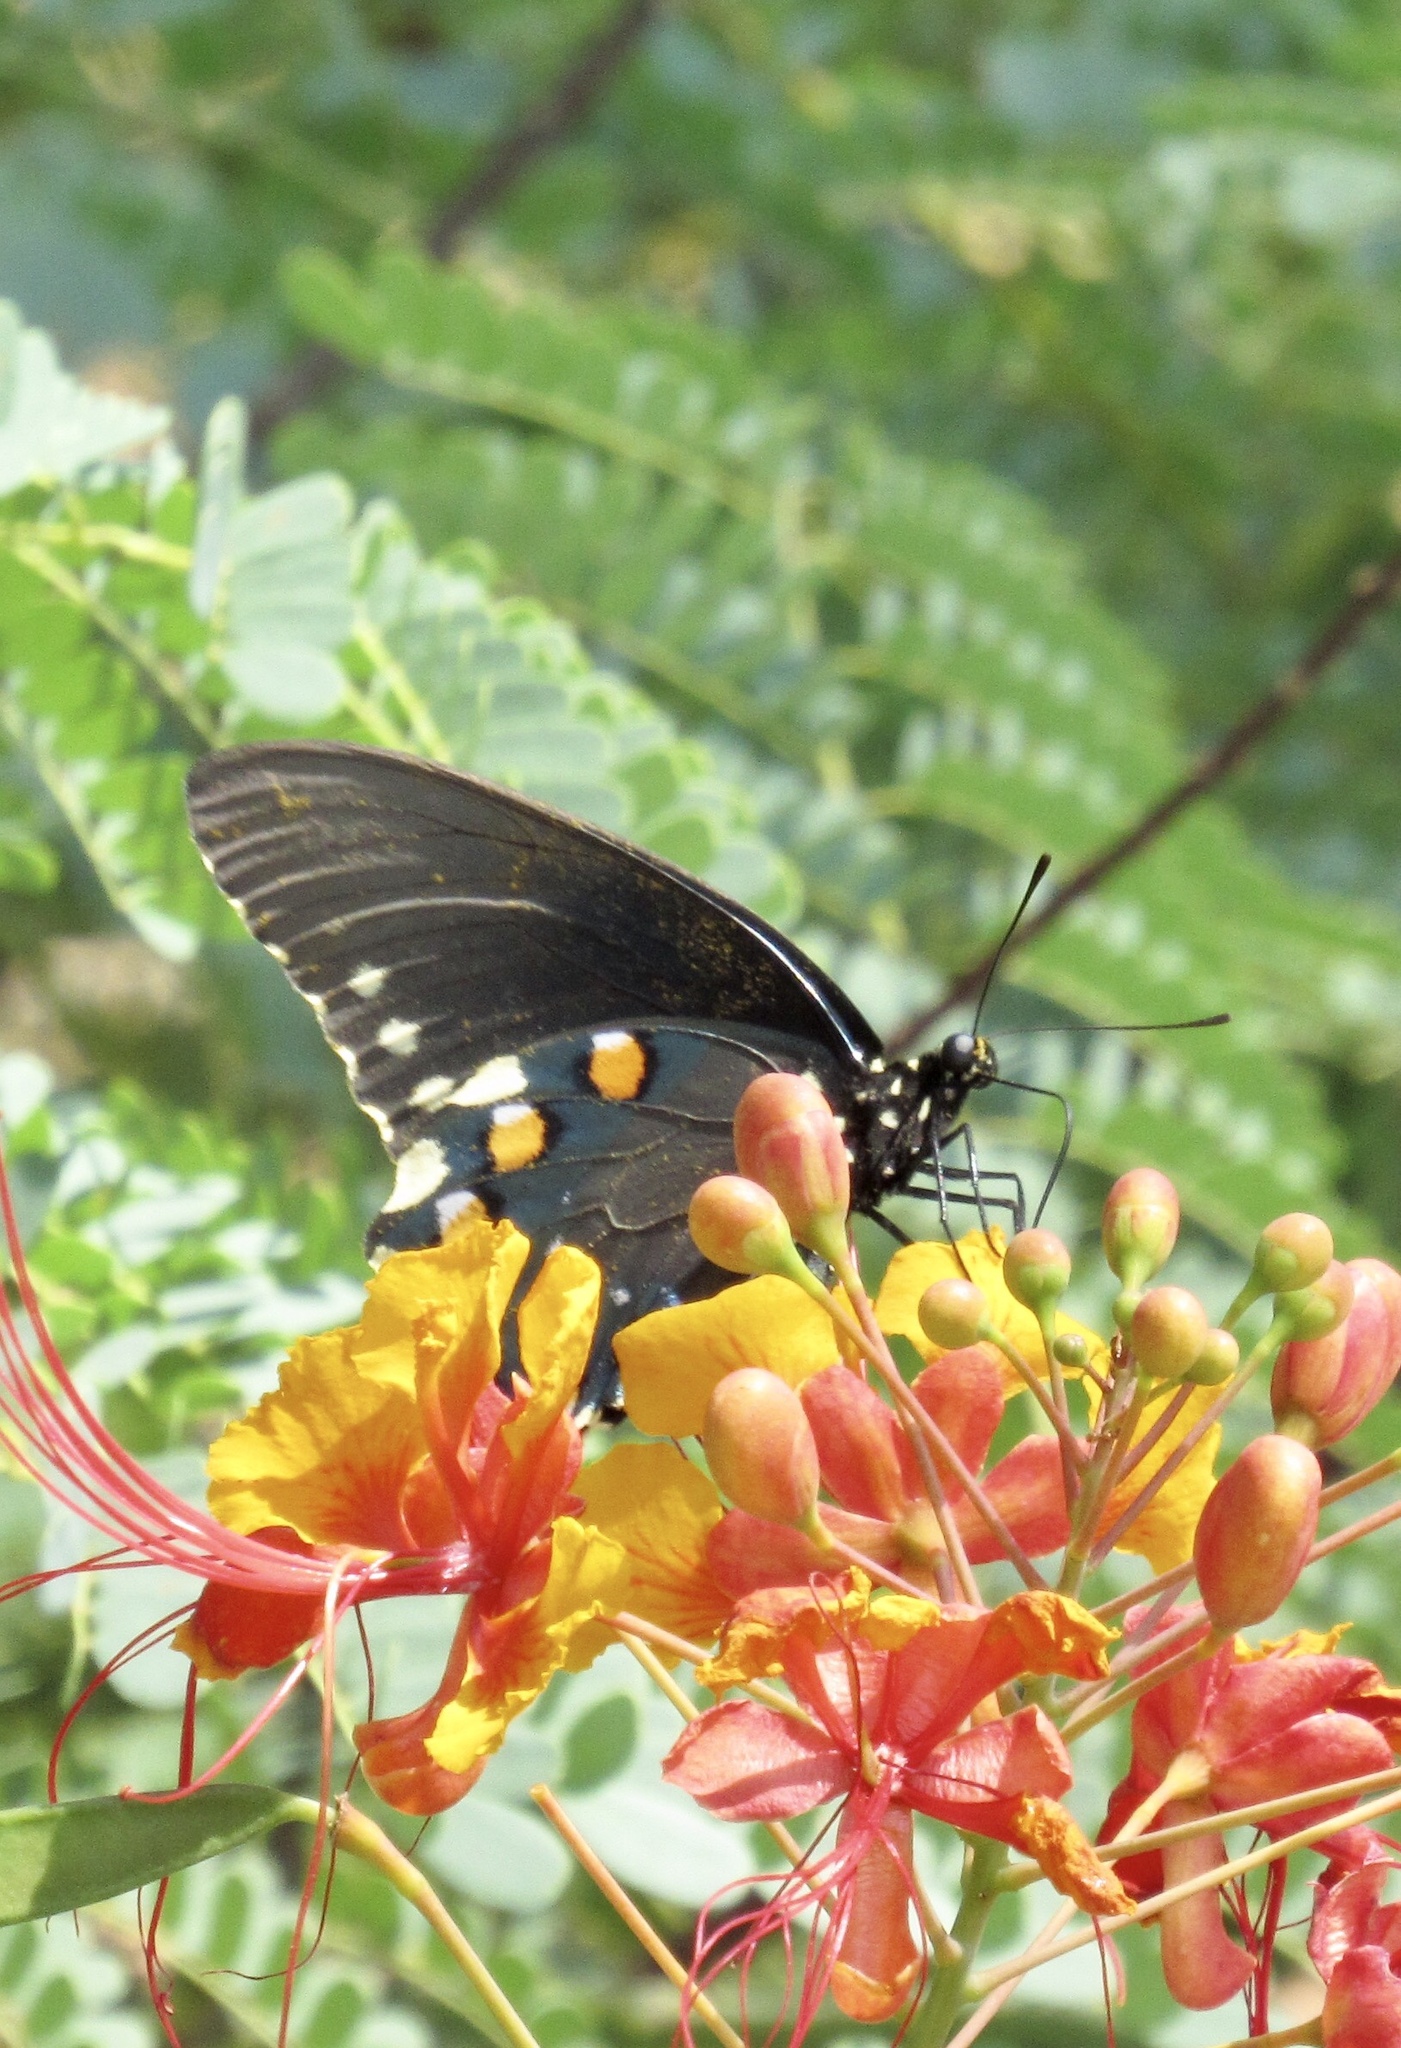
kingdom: Animalia
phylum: Arthropoda
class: Insecta
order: Lepidoptera
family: Papilionidae
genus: Battus
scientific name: Battus philenor
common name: Pipevine swallowtail
